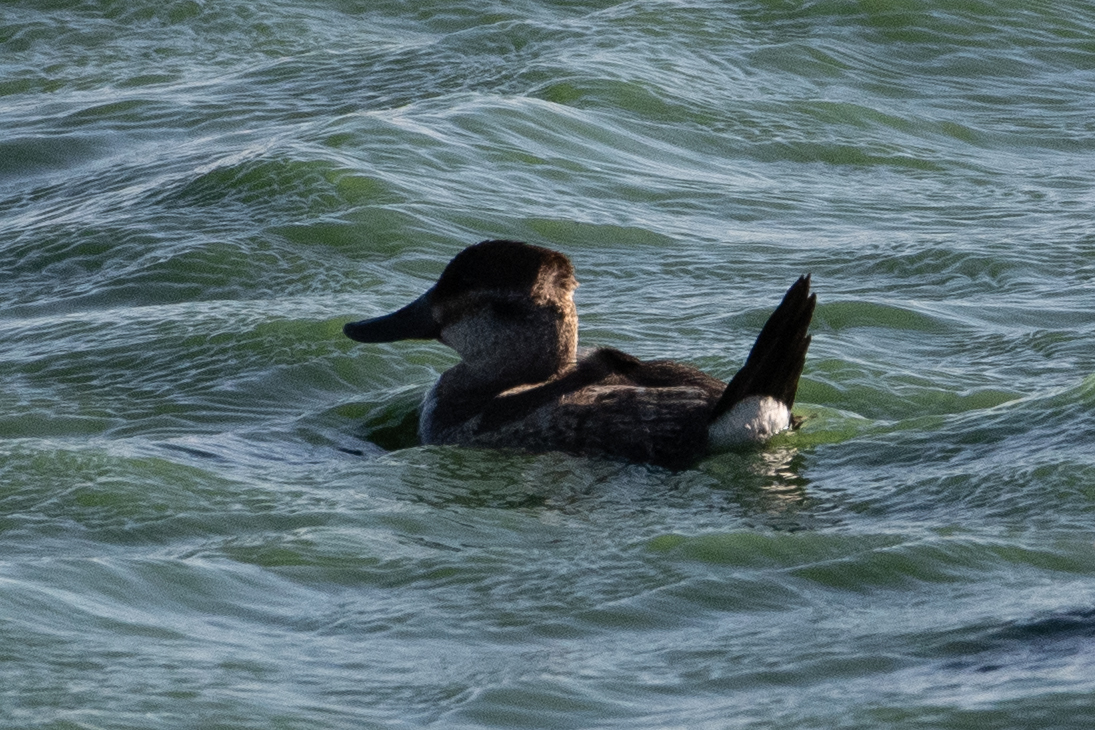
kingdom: Animalia
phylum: Chordata
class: Aves
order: Anseriformes
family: Anatidae
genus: Oxyura
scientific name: Oxyura jamaicensis
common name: Ruddy duck
